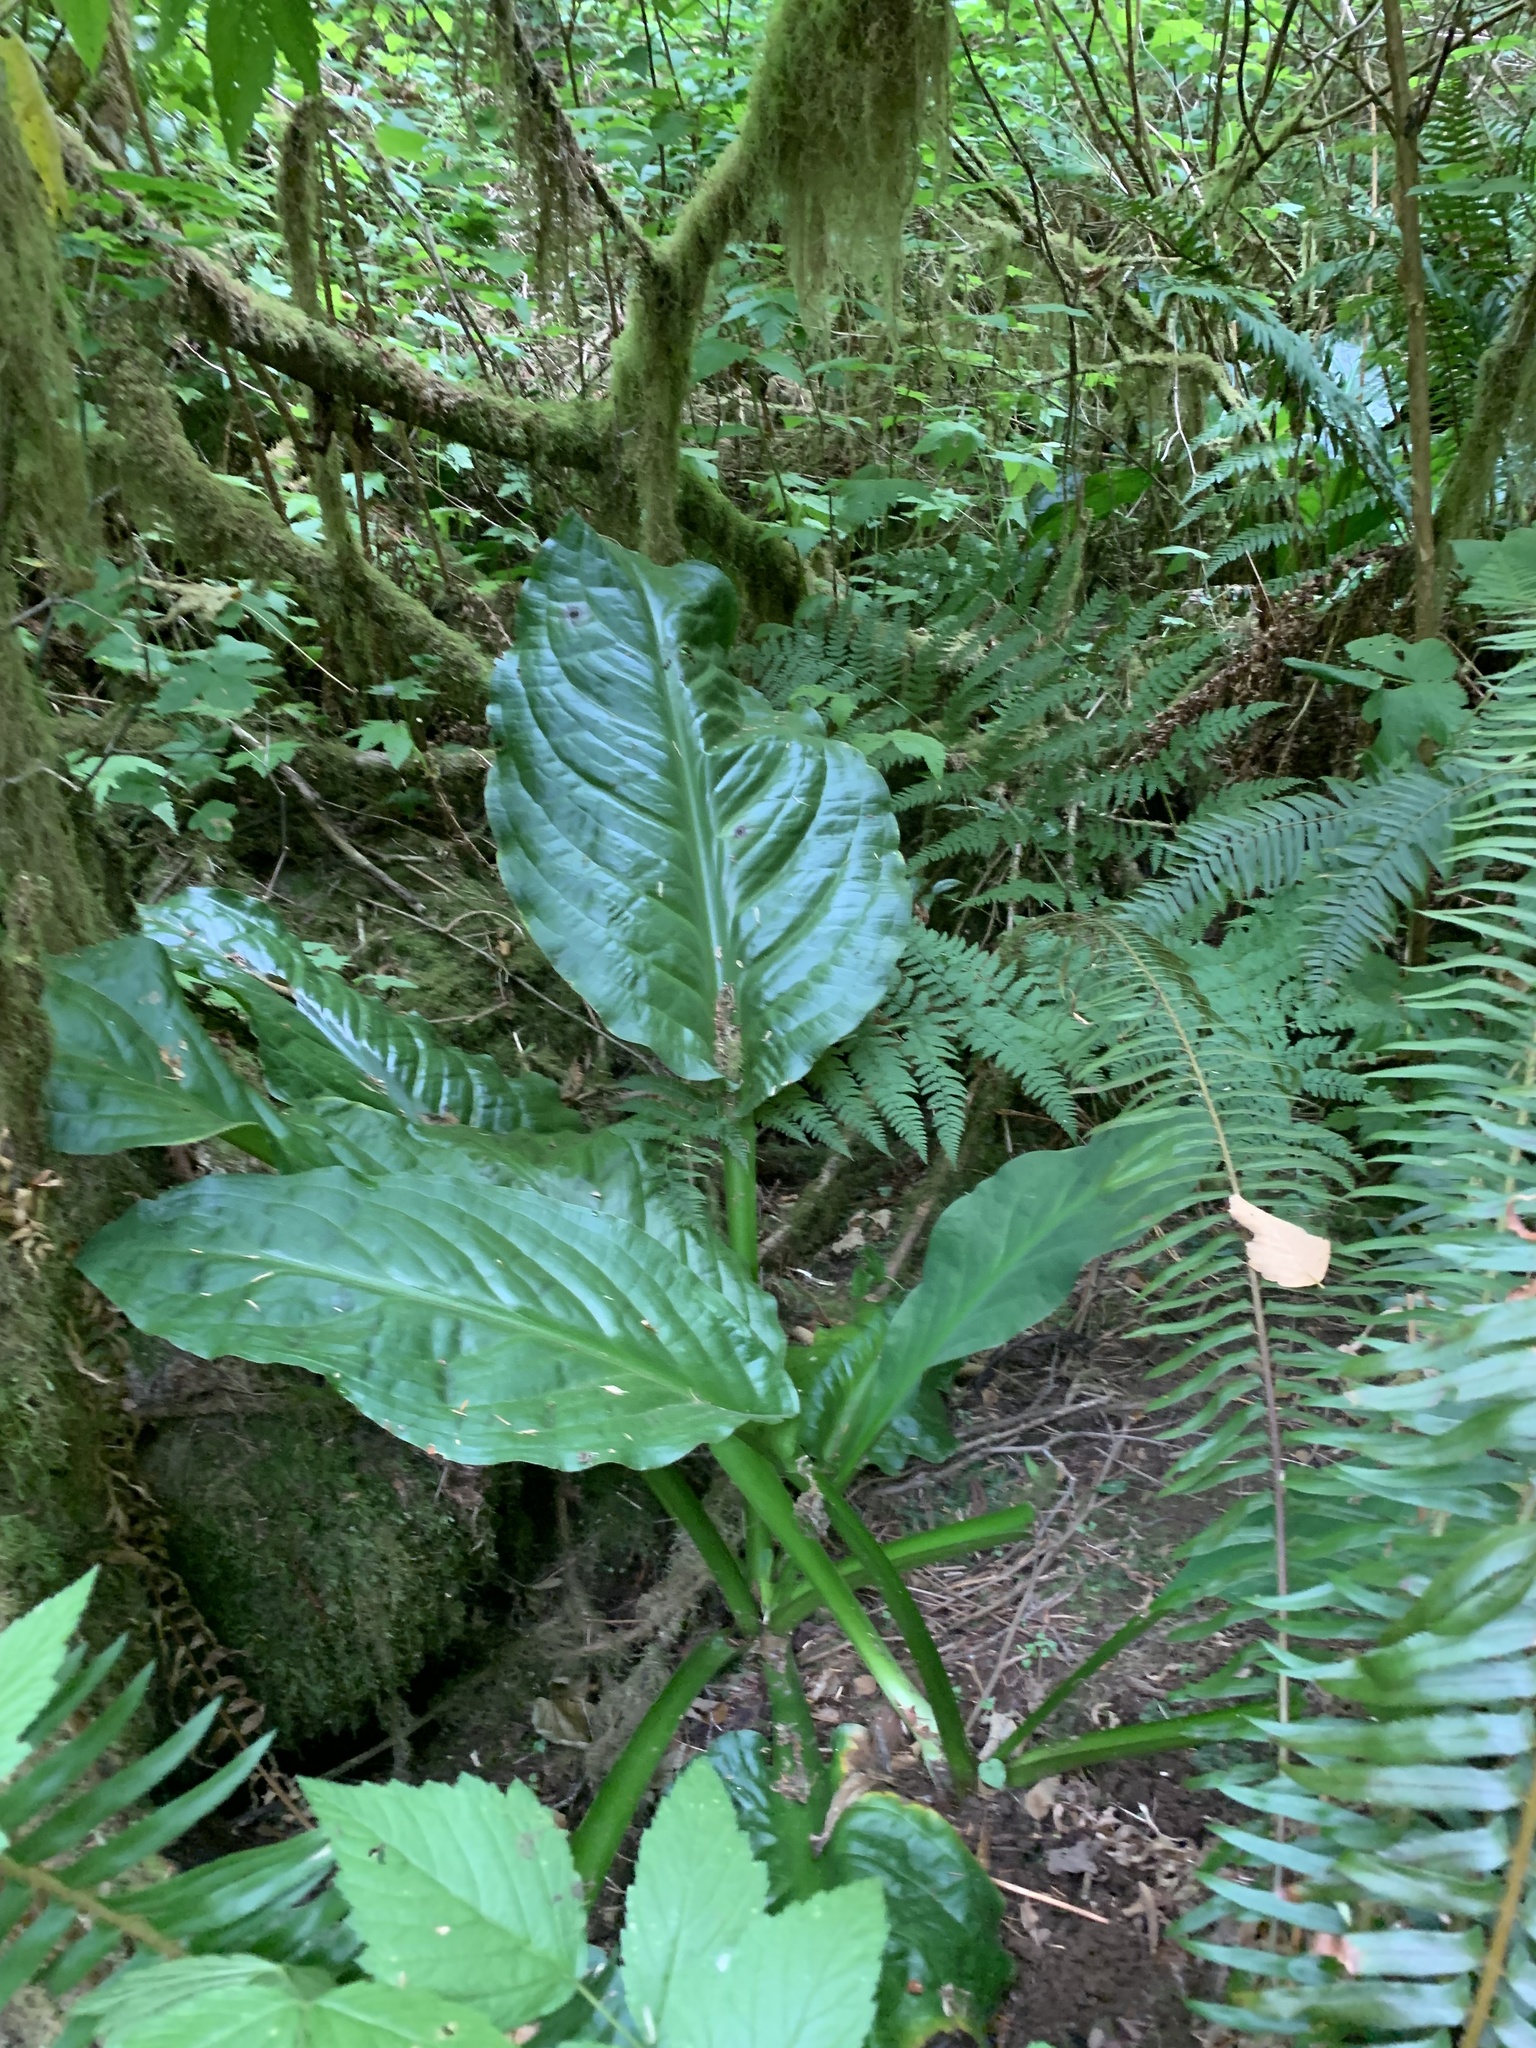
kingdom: Plantae
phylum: Tracheophyta
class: Liliopsida
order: Alismatales
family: Araceae
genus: Lysichiton
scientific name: Lysichiton americanus
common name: American skunk cabbage
